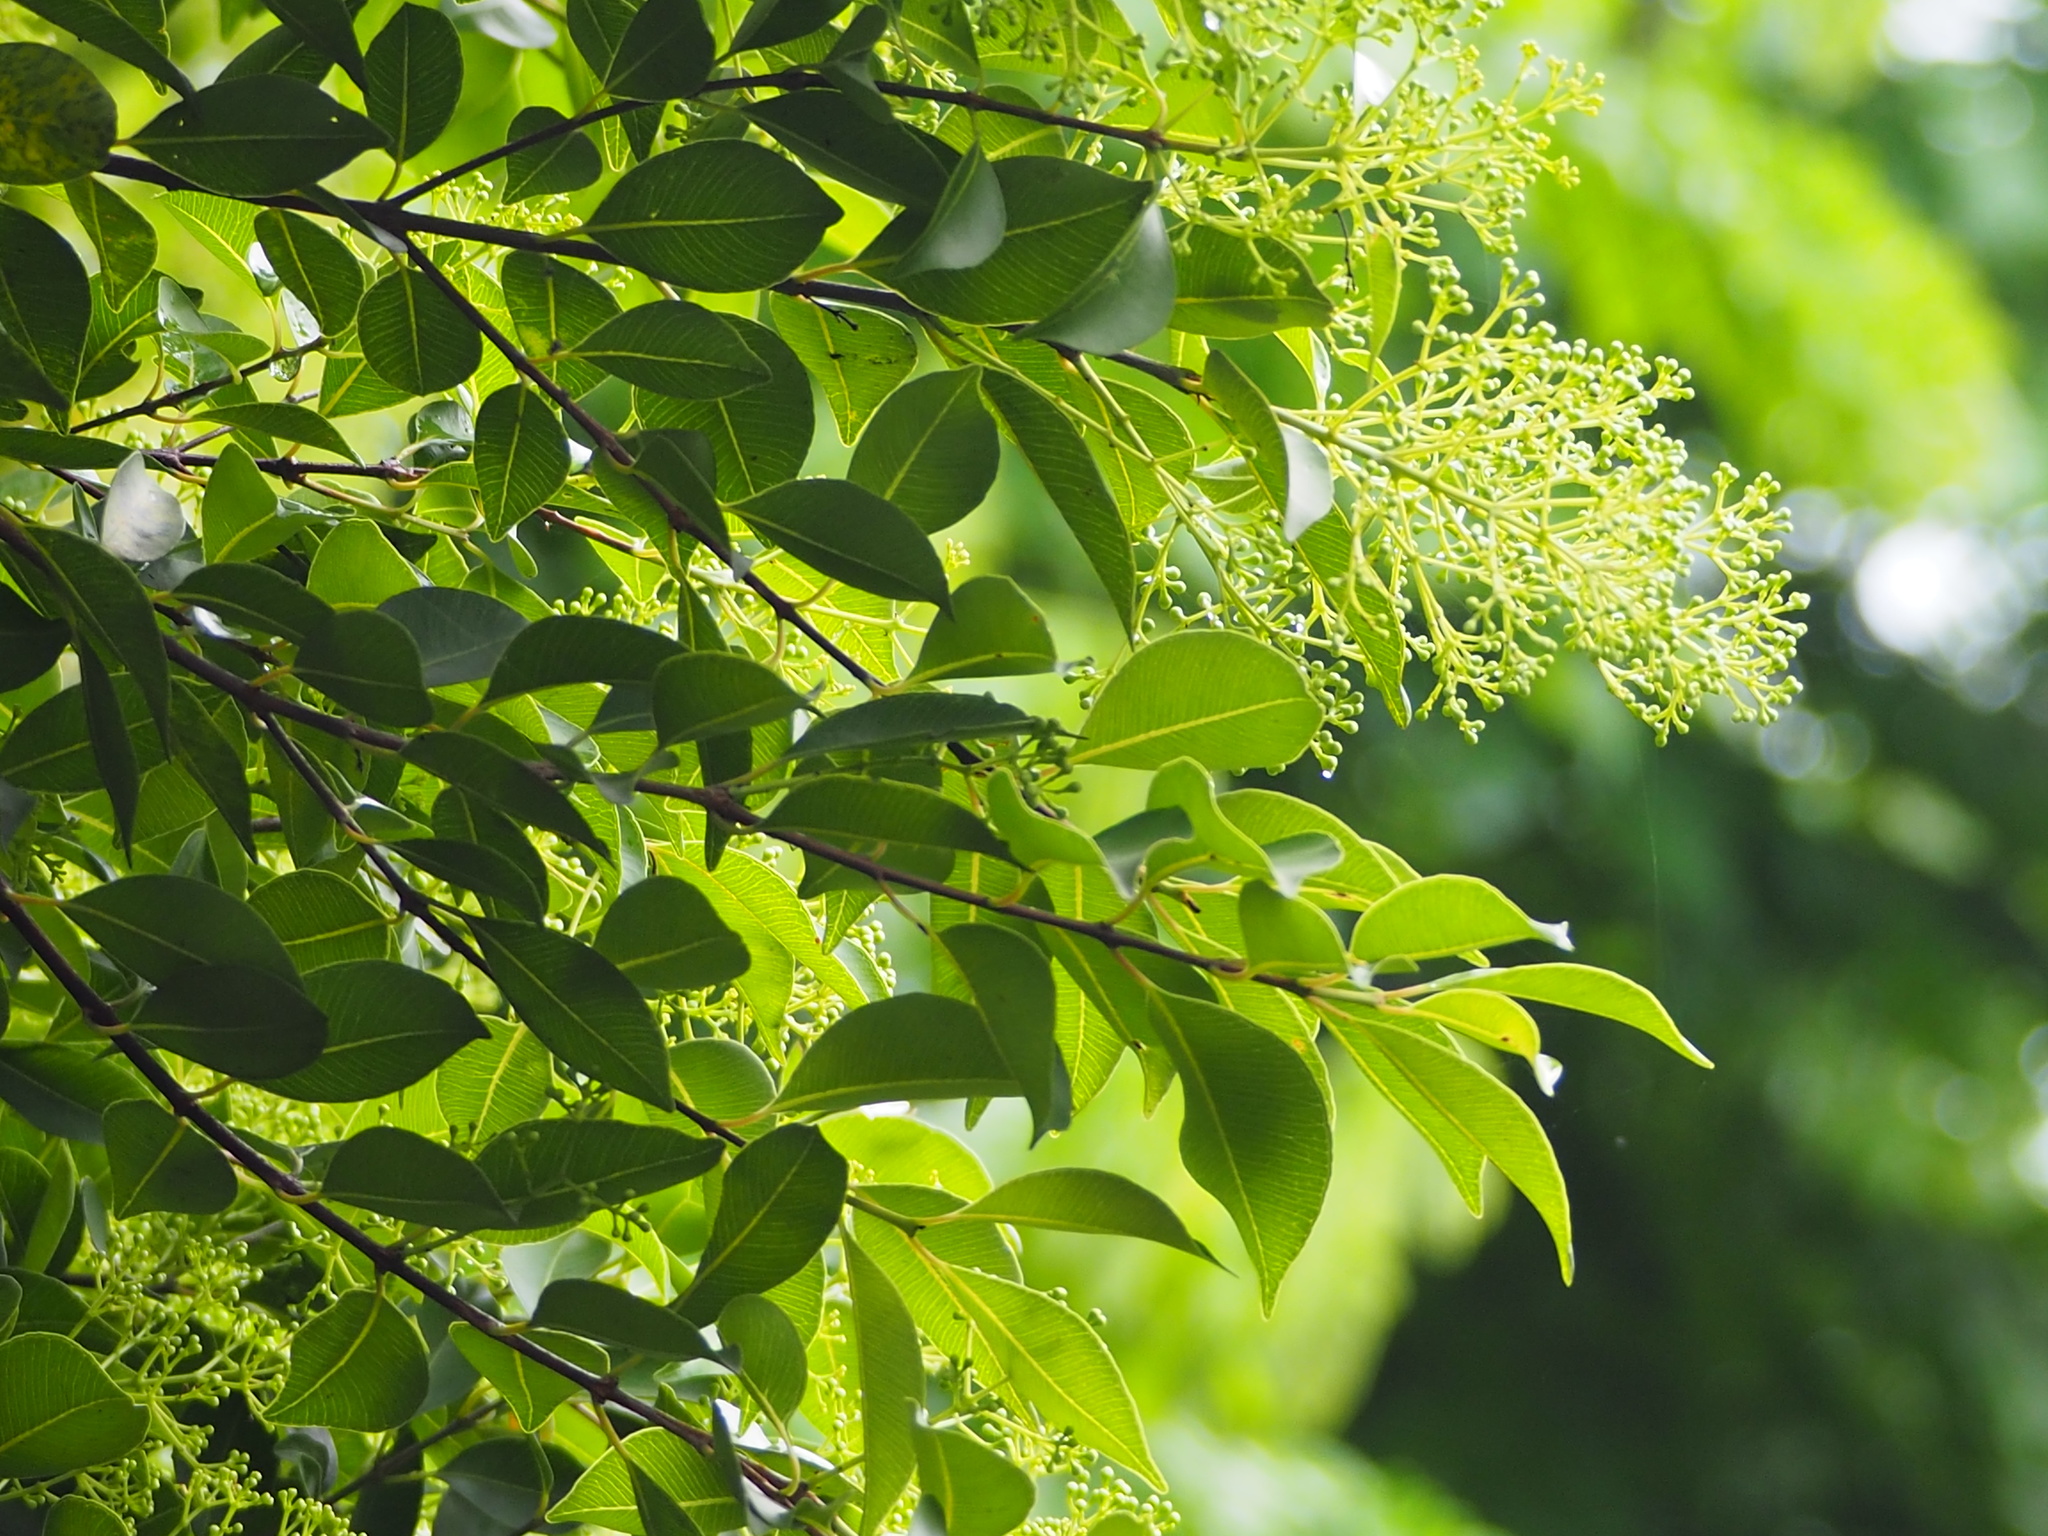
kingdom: Plantae
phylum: Tracheophyta
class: Magnoliopsida
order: Myrtales
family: Myrtaceae
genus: Syzygium
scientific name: Syzygium formosanum
